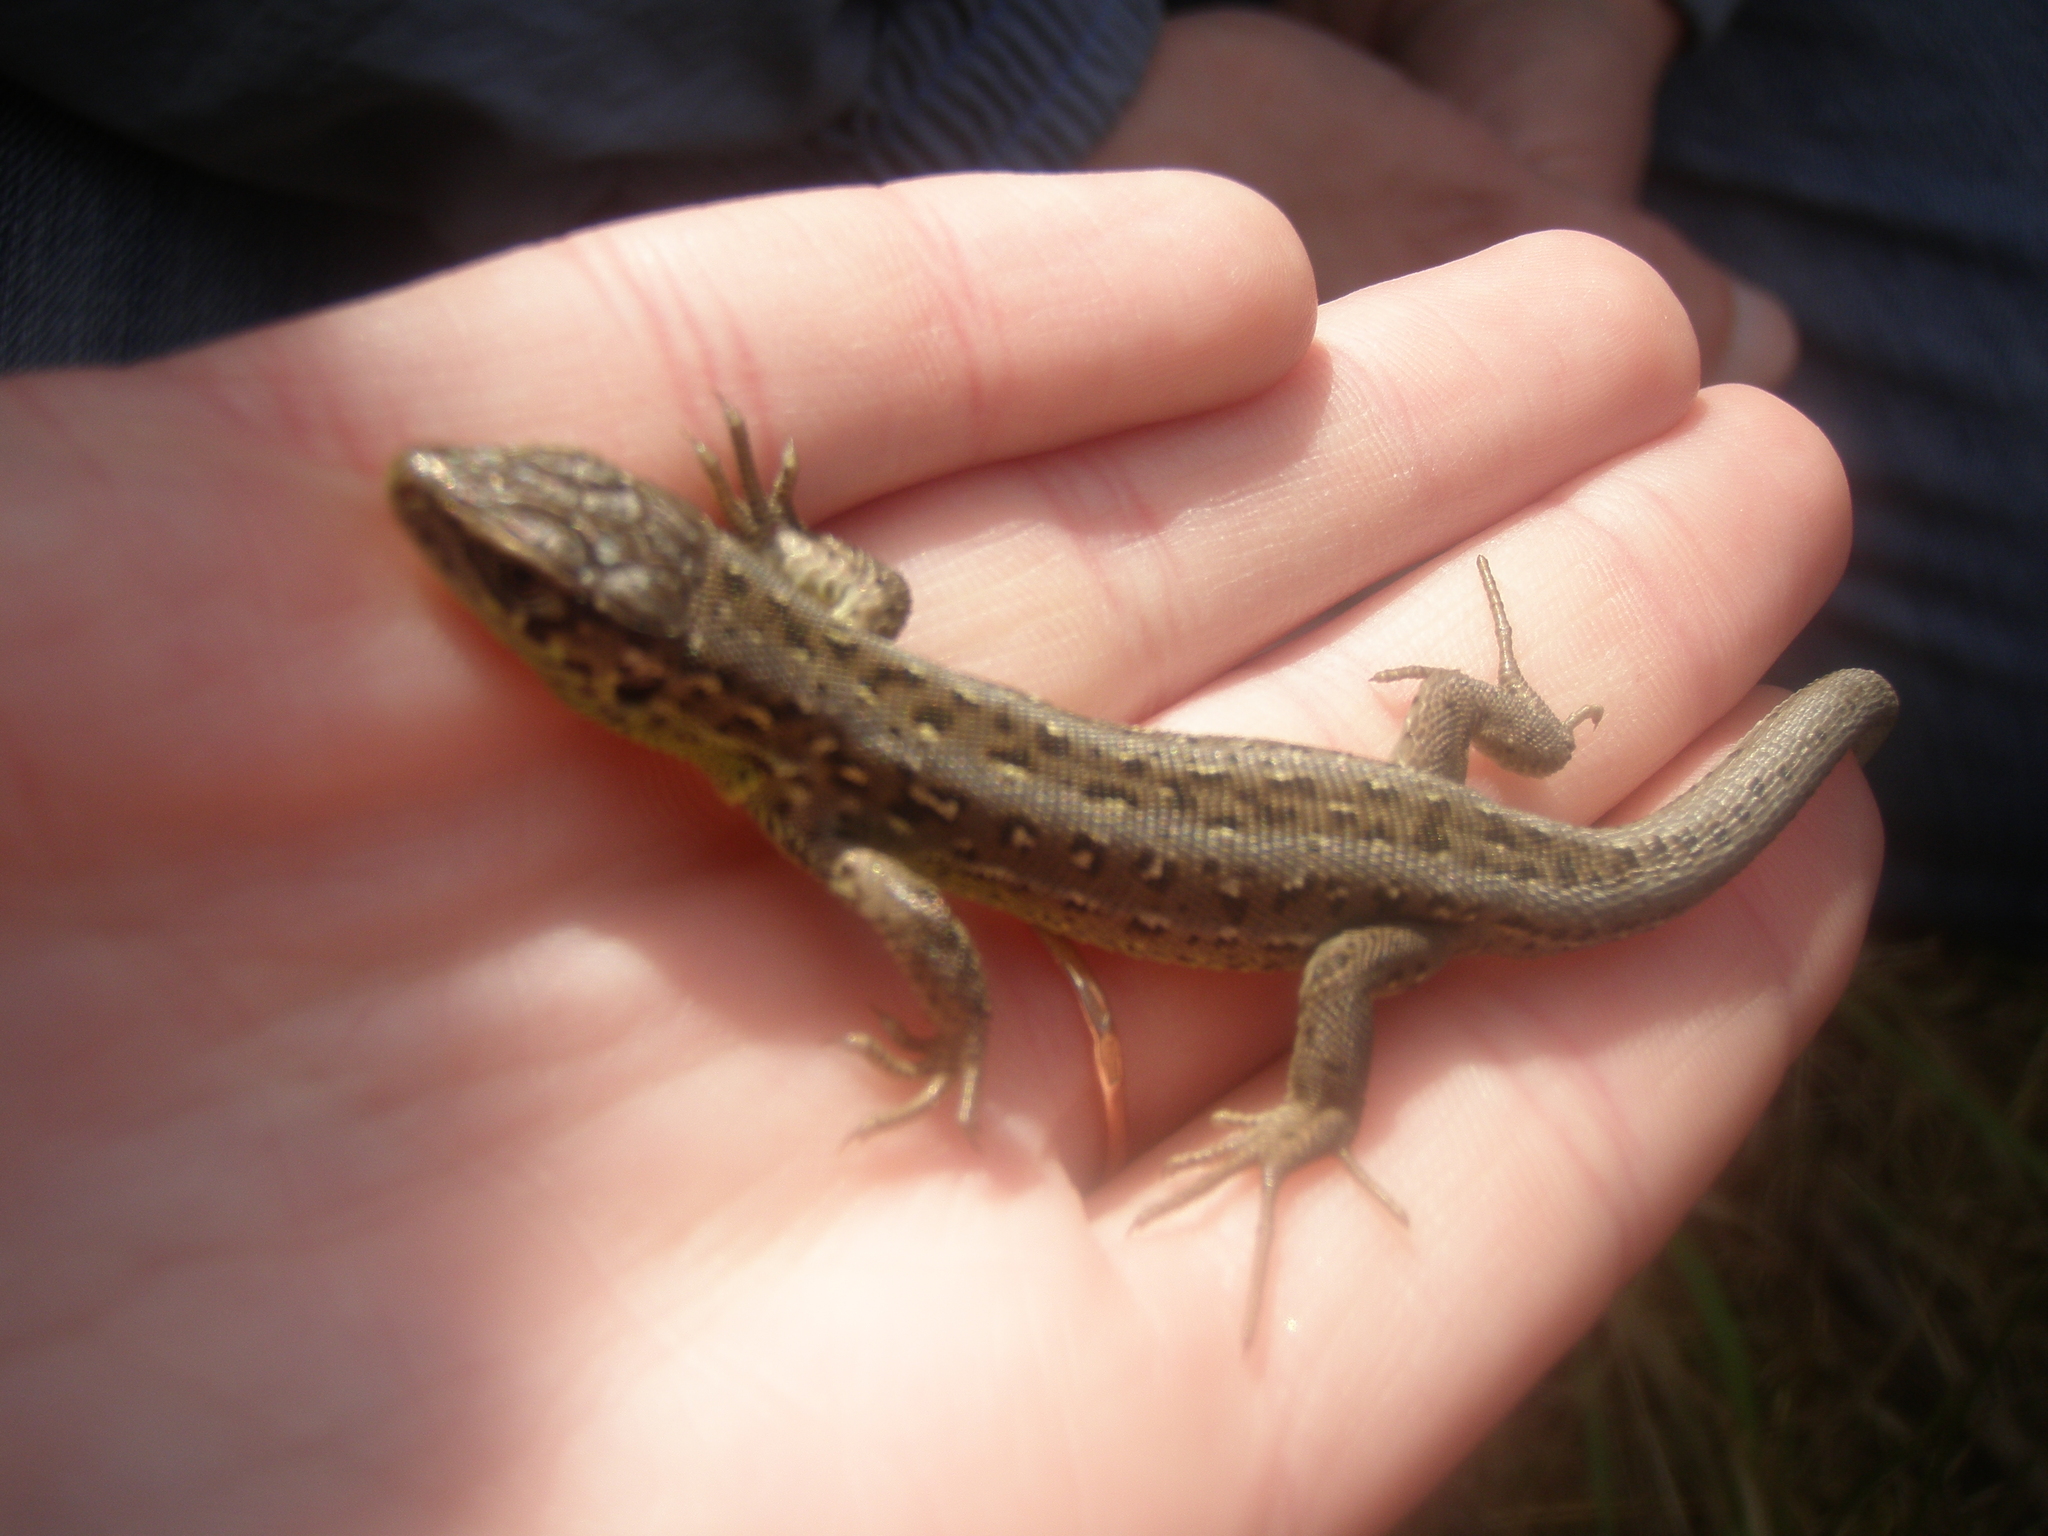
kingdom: Animalia
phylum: Chordata
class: Squamata
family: Lacertidae
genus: Lacerta
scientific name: Lacerta agilis
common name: Sand lizard
